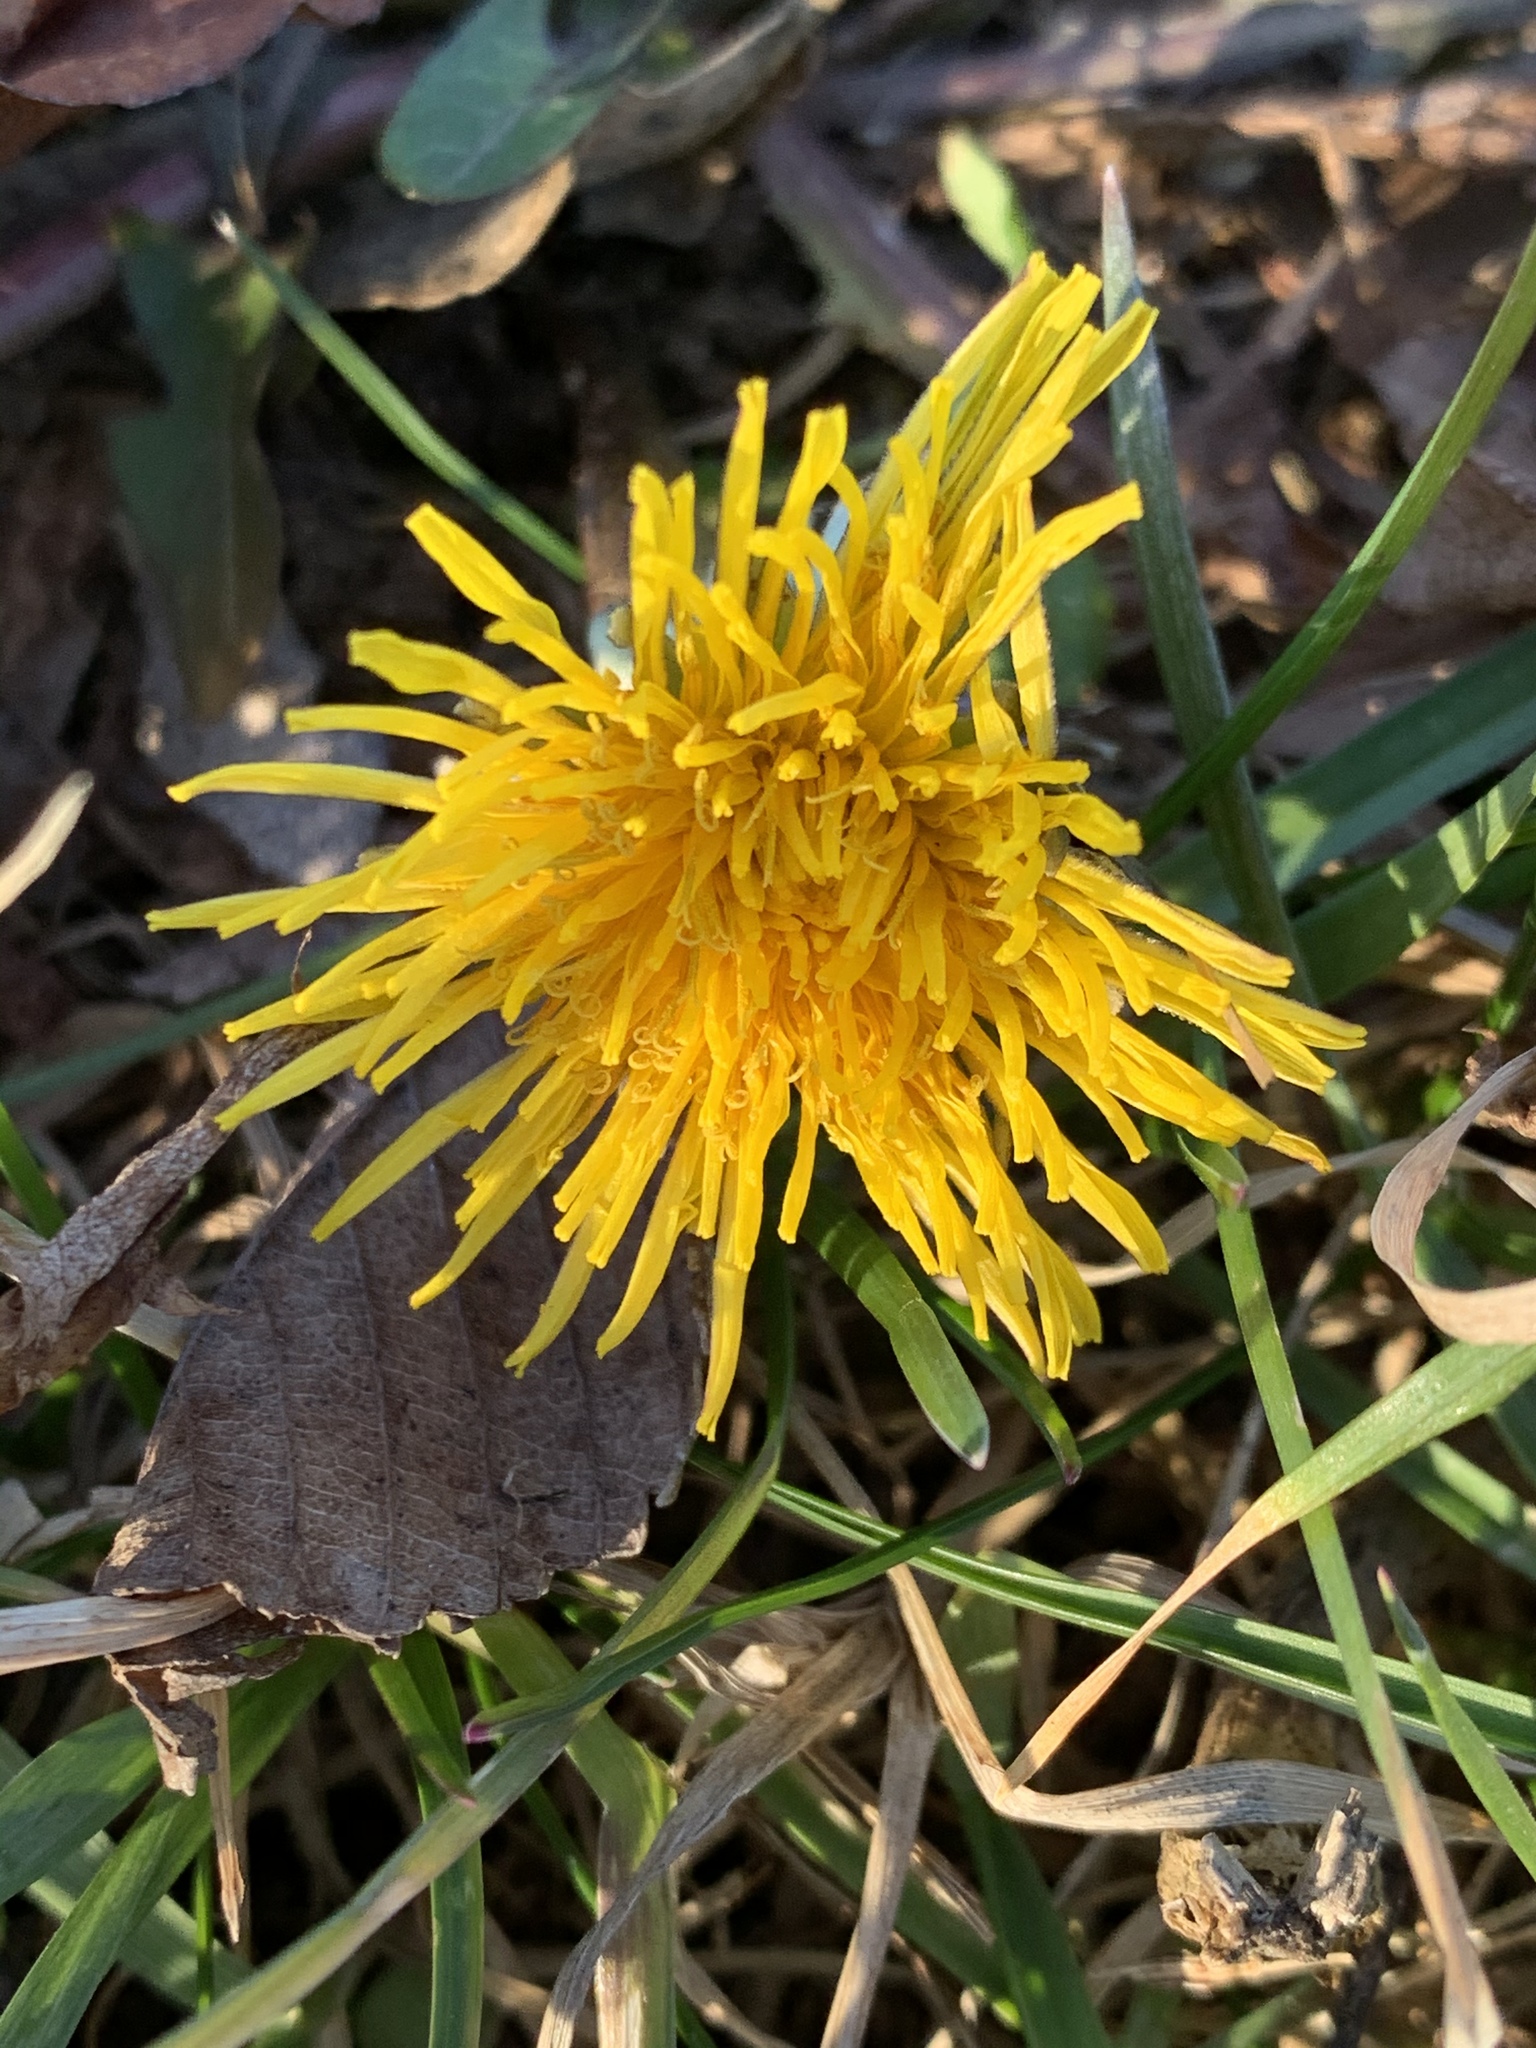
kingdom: Plantae
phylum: Tracheophyta
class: Magnoliopsida
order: Asterales
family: Asteraceae
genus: Taraxacum
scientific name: Taraxacum
